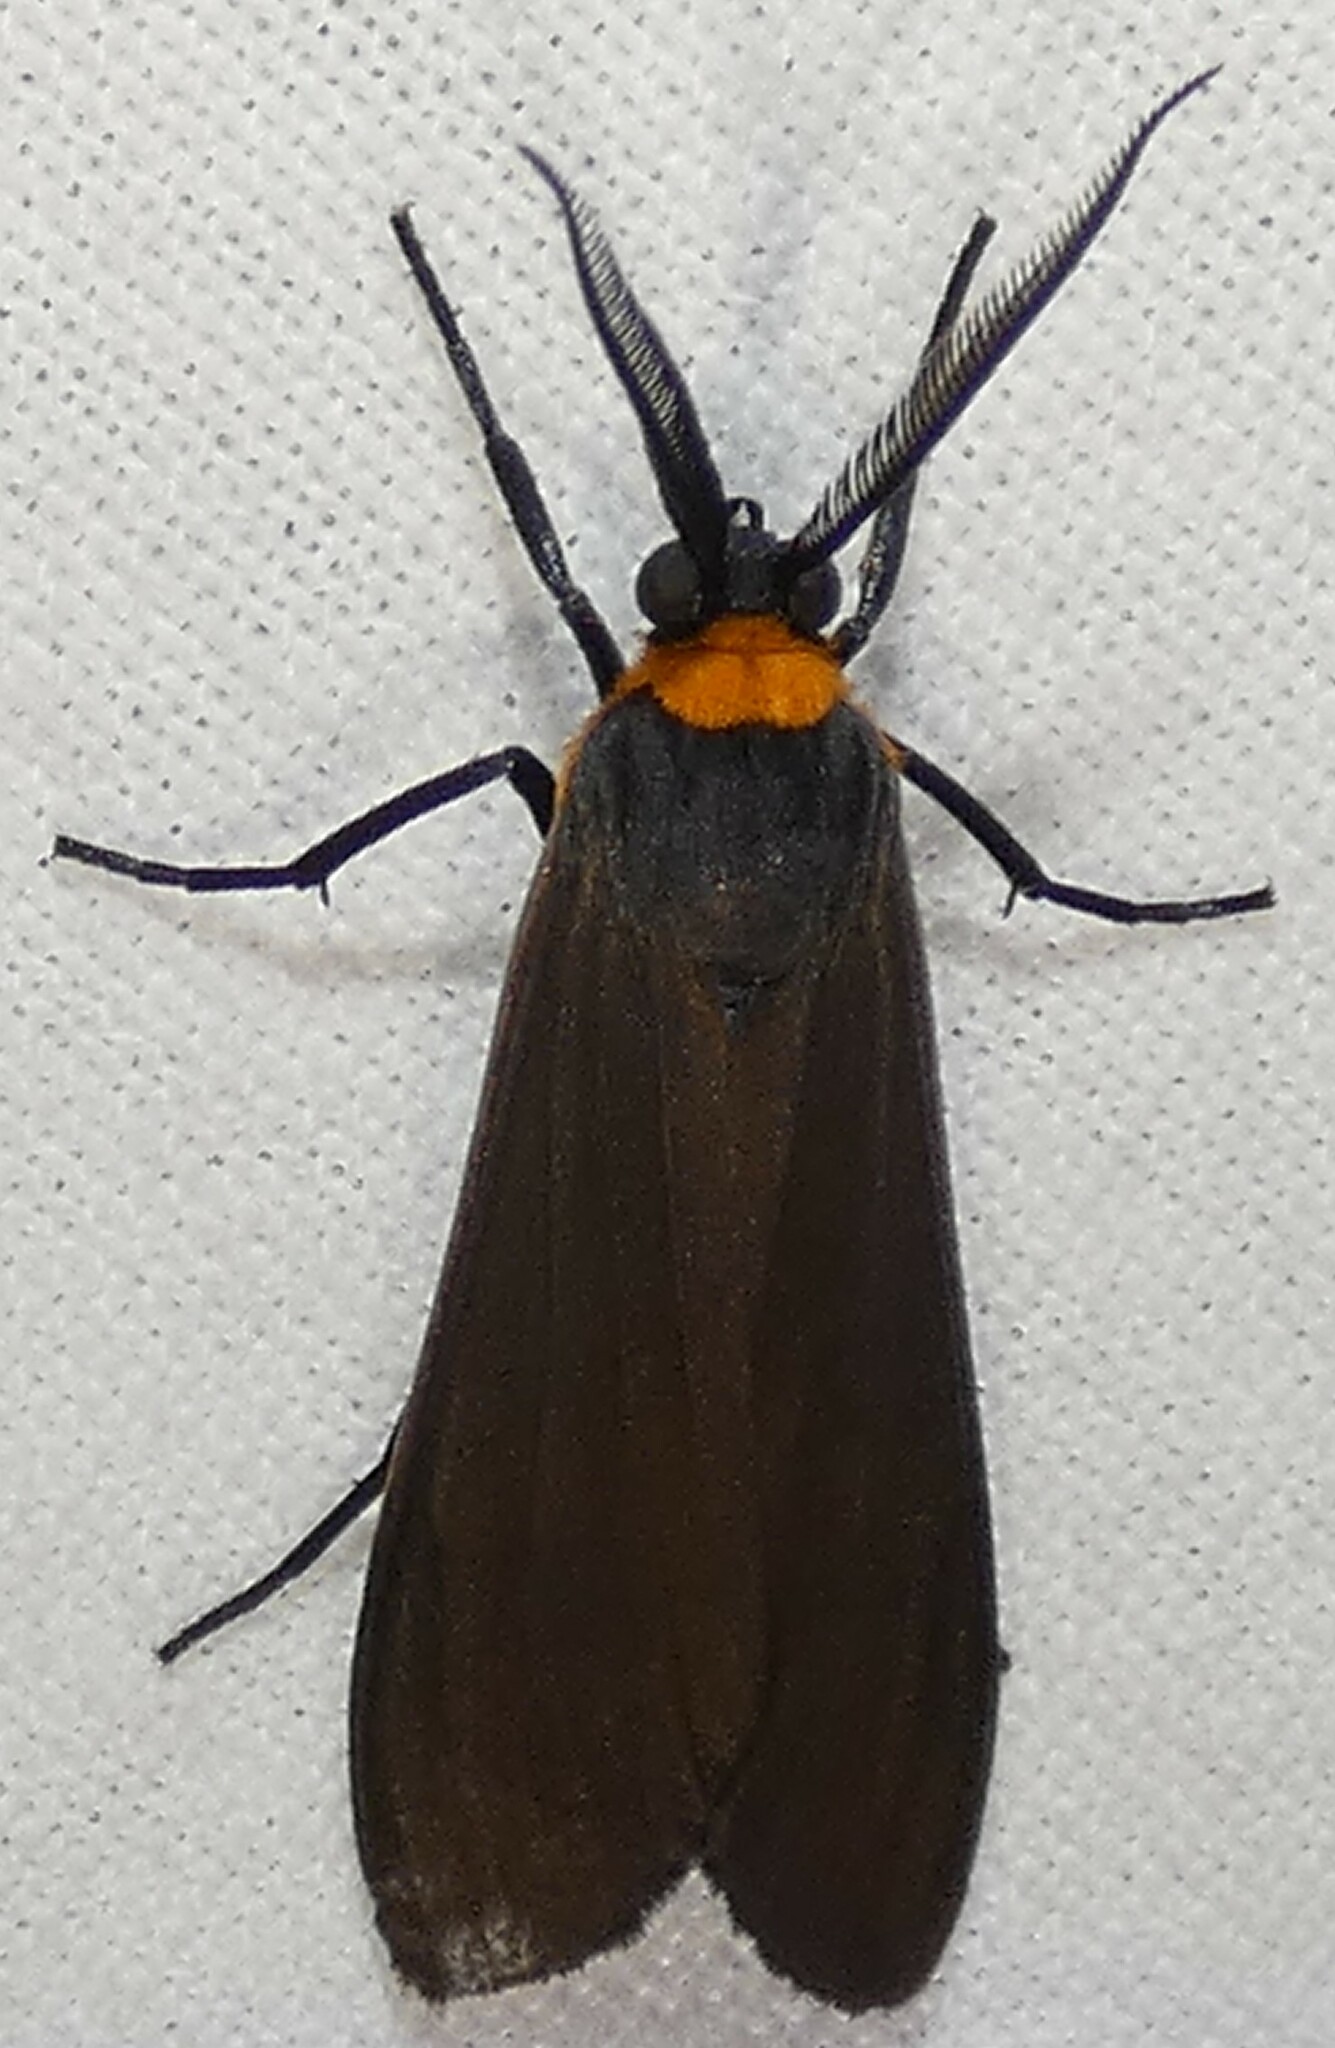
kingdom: Animalia
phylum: Arthropoda
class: Insecta
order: Lepidoptera
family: Erebidae
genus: Cisseps
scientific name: Cisseps fulvicollis
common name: Yellow-collared scape moth
